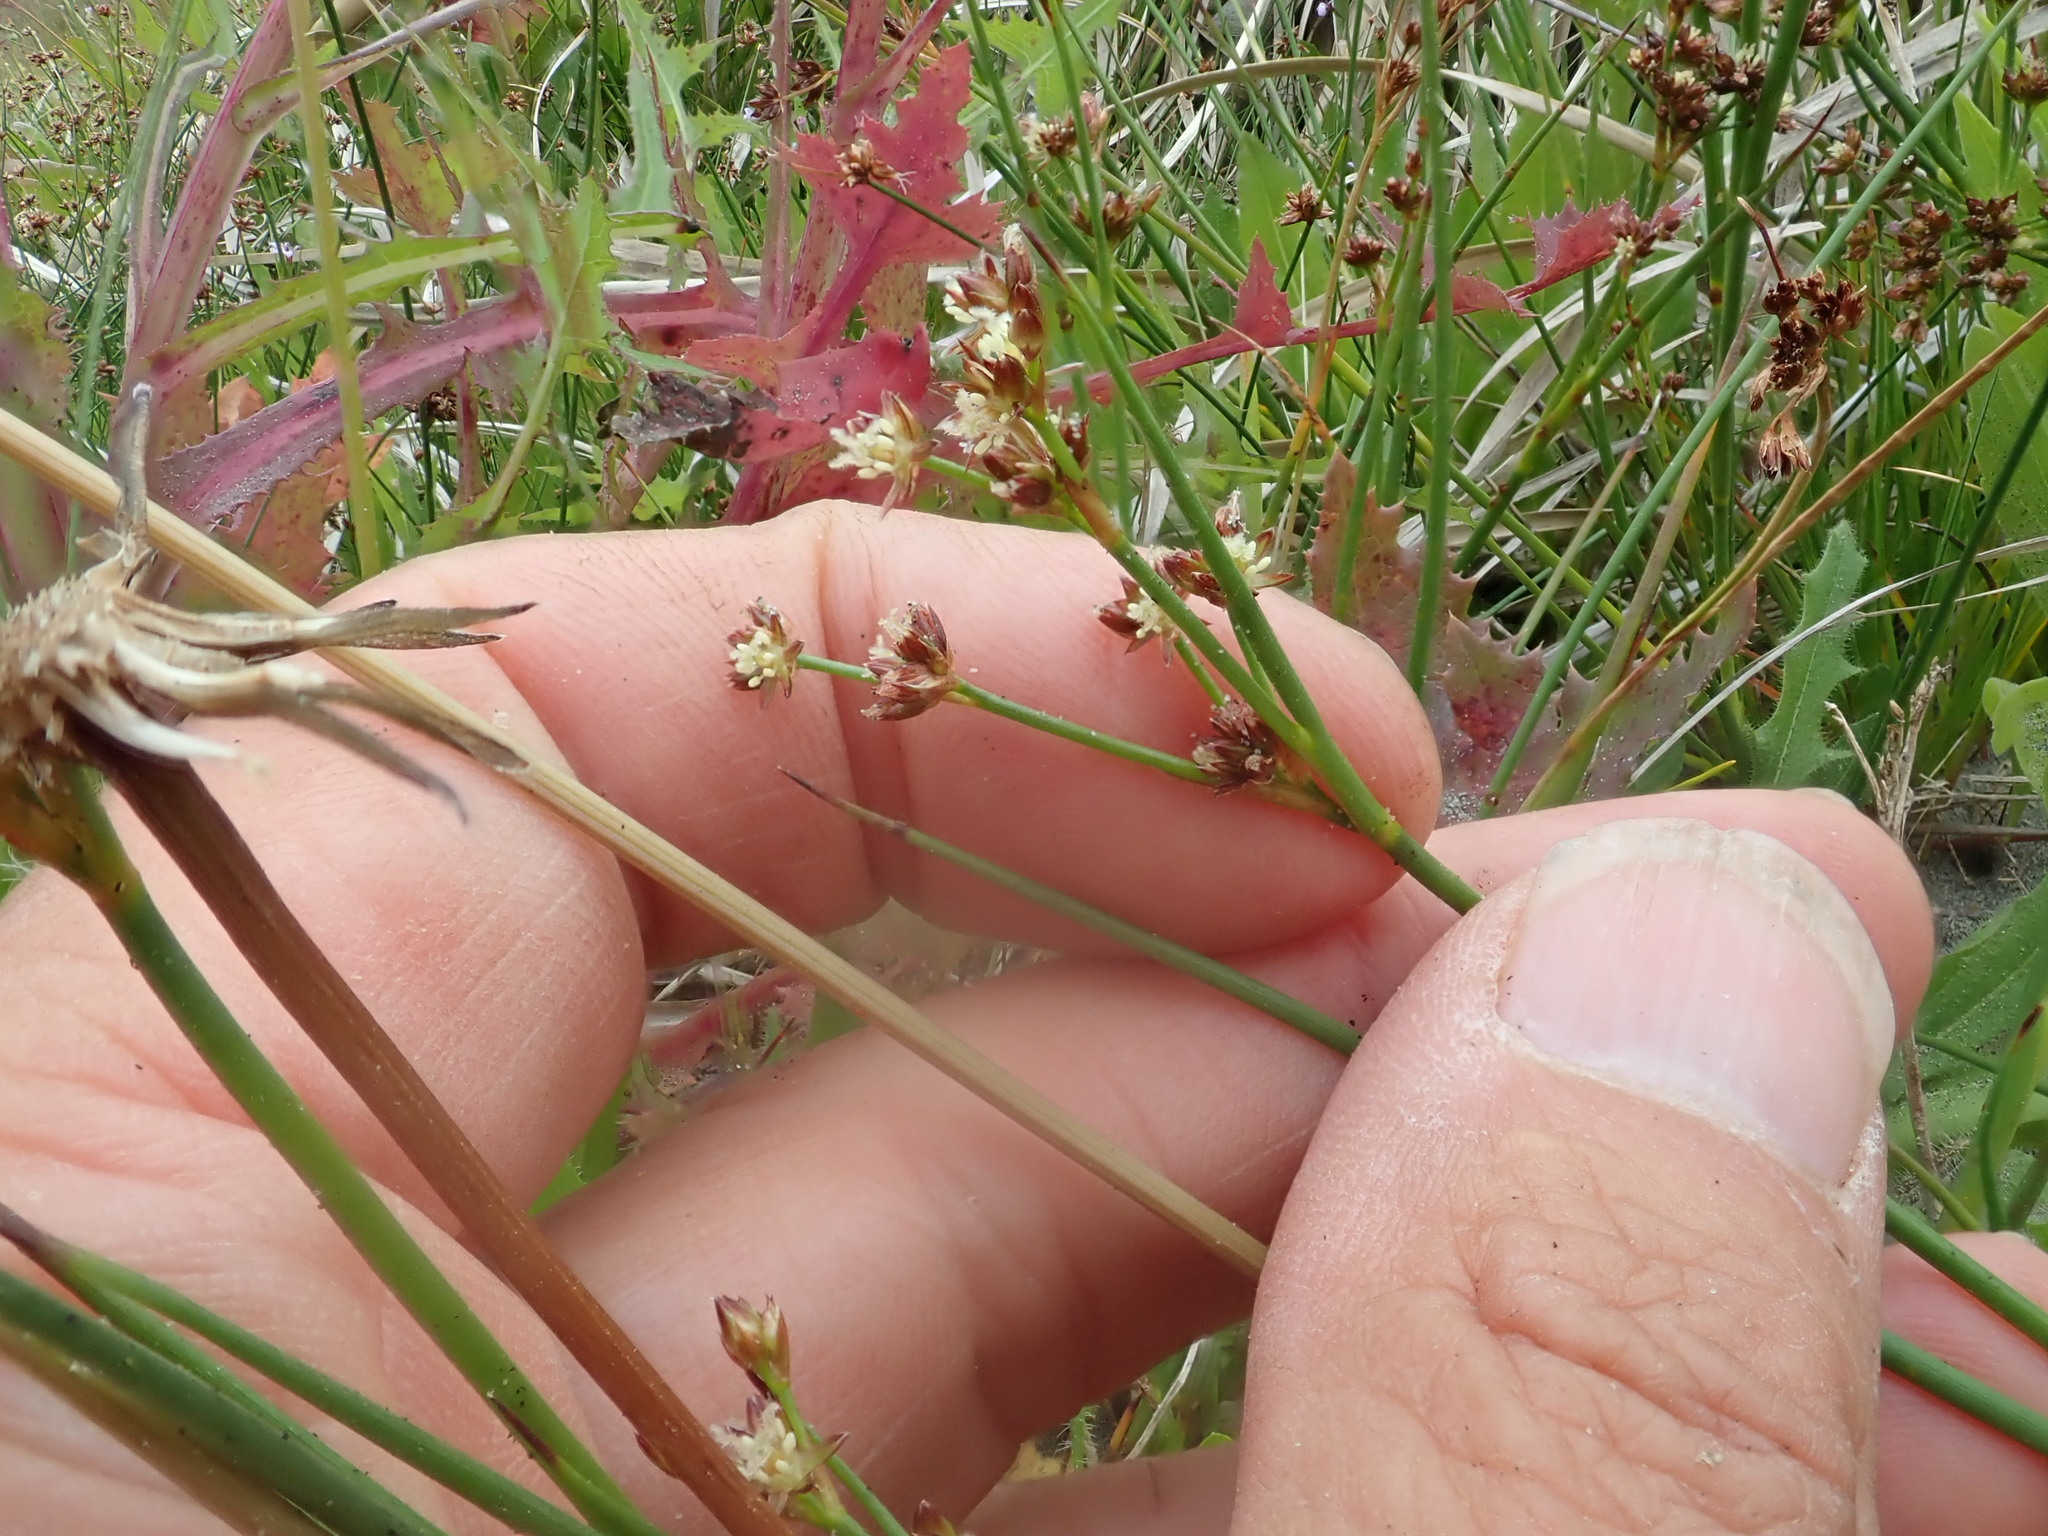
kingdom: Plantae
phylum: Tracheophyta
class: Liliopsida
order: Poales
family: Juncaceae
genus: Juncus
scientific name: Juncus articulatus
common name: Jointed rush
